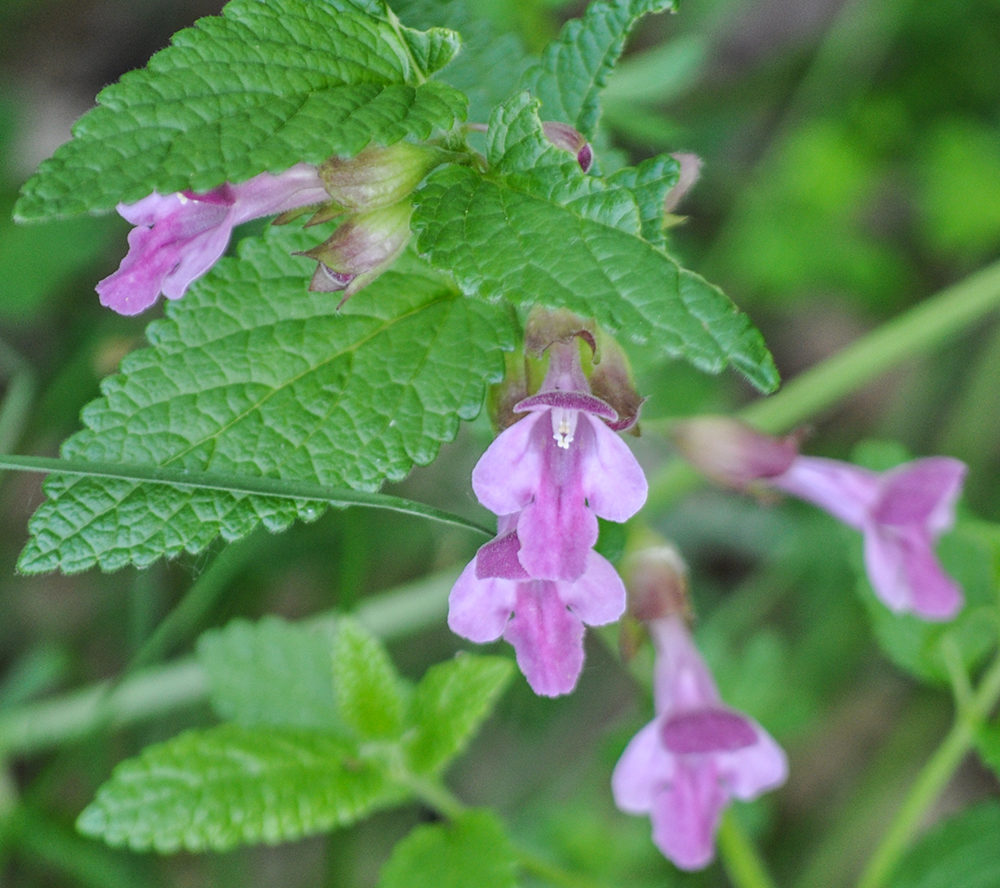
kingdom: Plantae
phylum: Tracheophyta
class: Magnoliopsida
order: Lamiales
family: Lamiaceae
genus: Melittis
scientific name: Melittis melissophyllum
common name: Bastard balm
